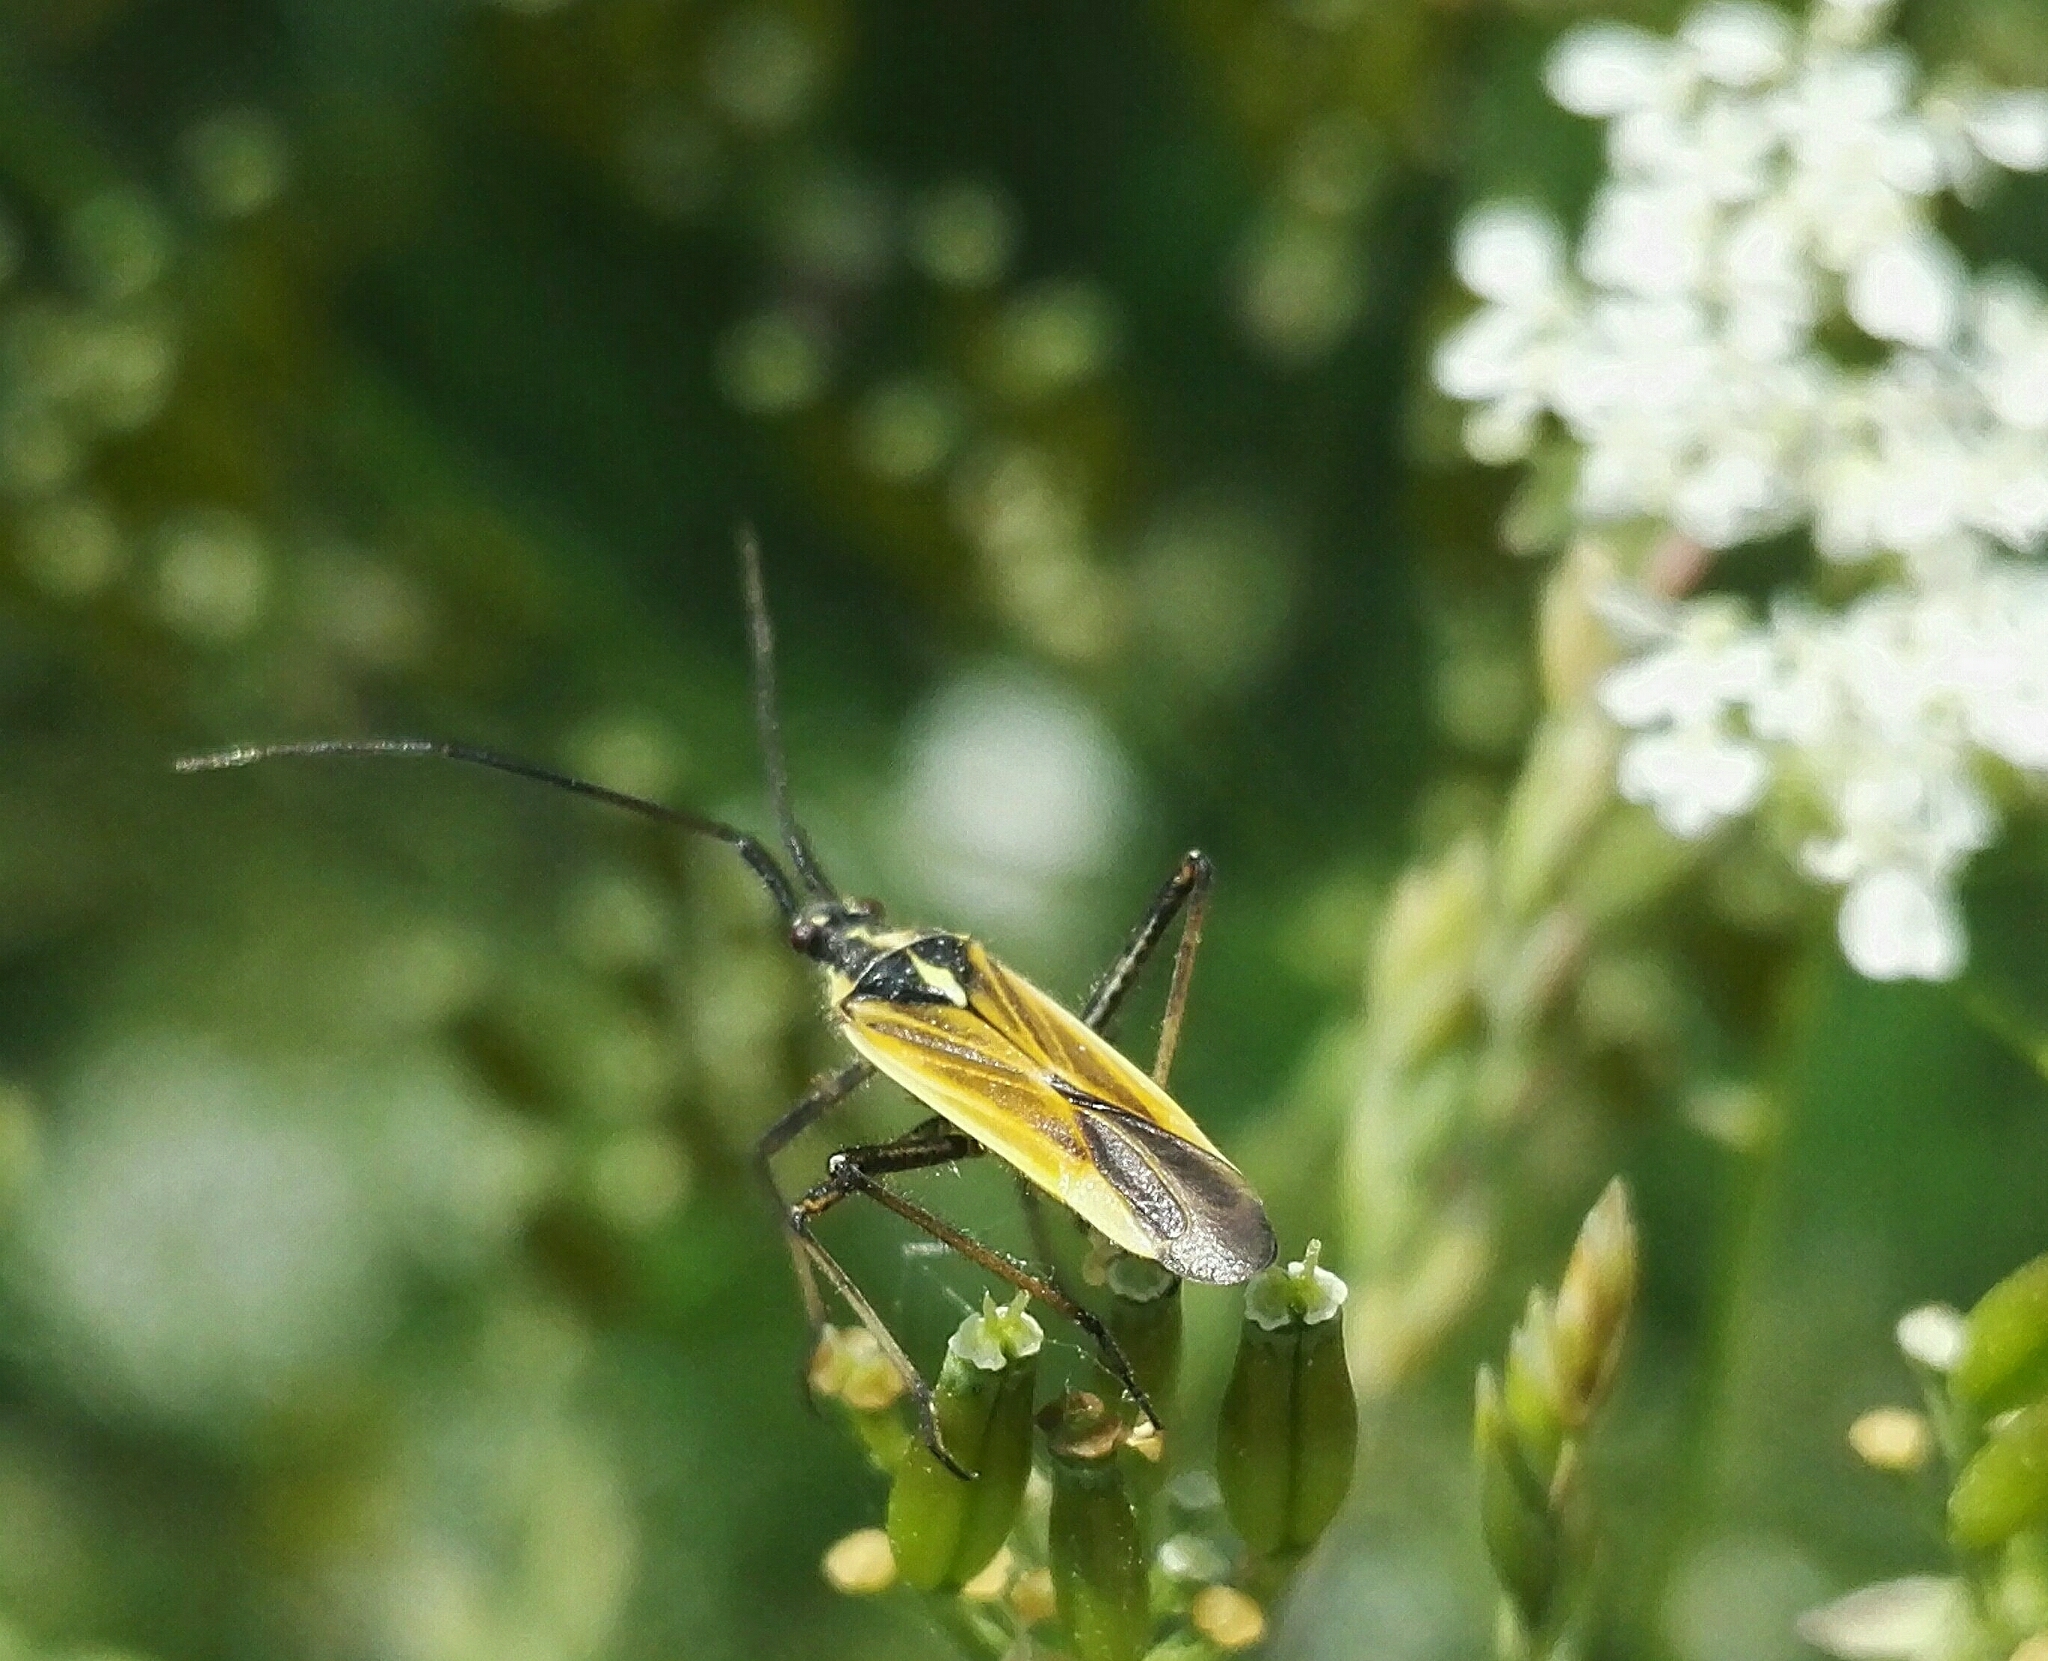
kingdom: Animalia
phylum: Arthropoda
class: Insecta
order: Hemiptera
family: Miridae
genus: Leptopterna
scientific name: Leptopterna dolabrata
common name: Meadow plant bug
